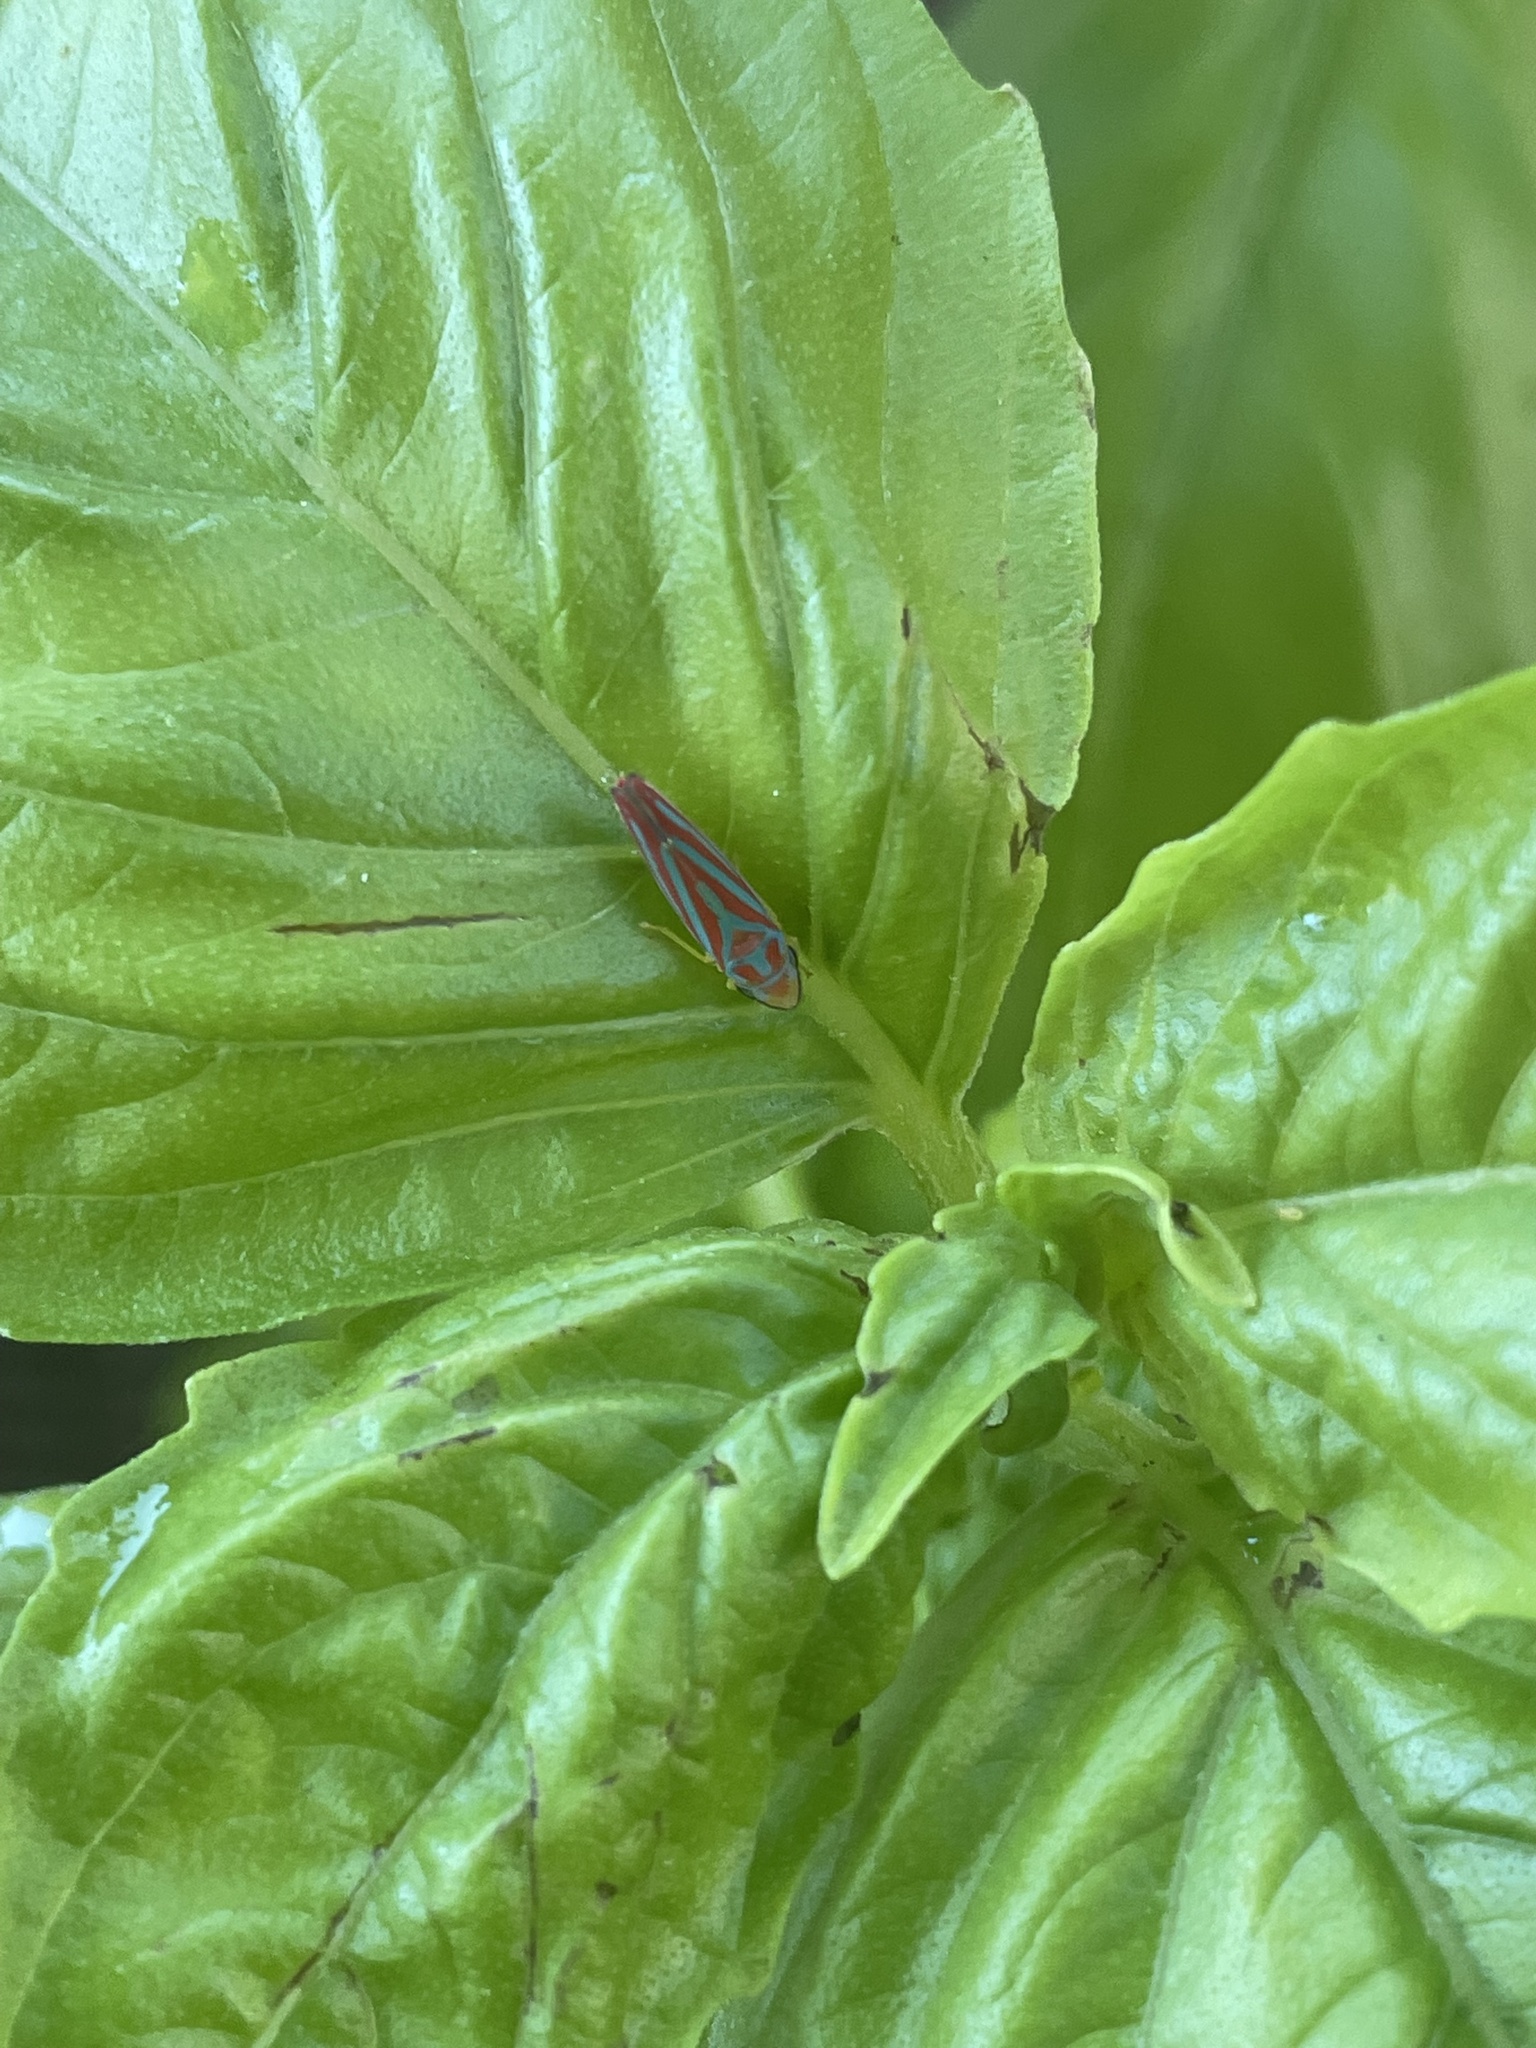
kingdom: Animalia
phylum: Arthropoda
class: Insecta
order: Hemiptera
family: Cicadellidae
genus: Graphocephala
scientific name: Graphocephala coccinea
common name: Candy-striped leafhopper
